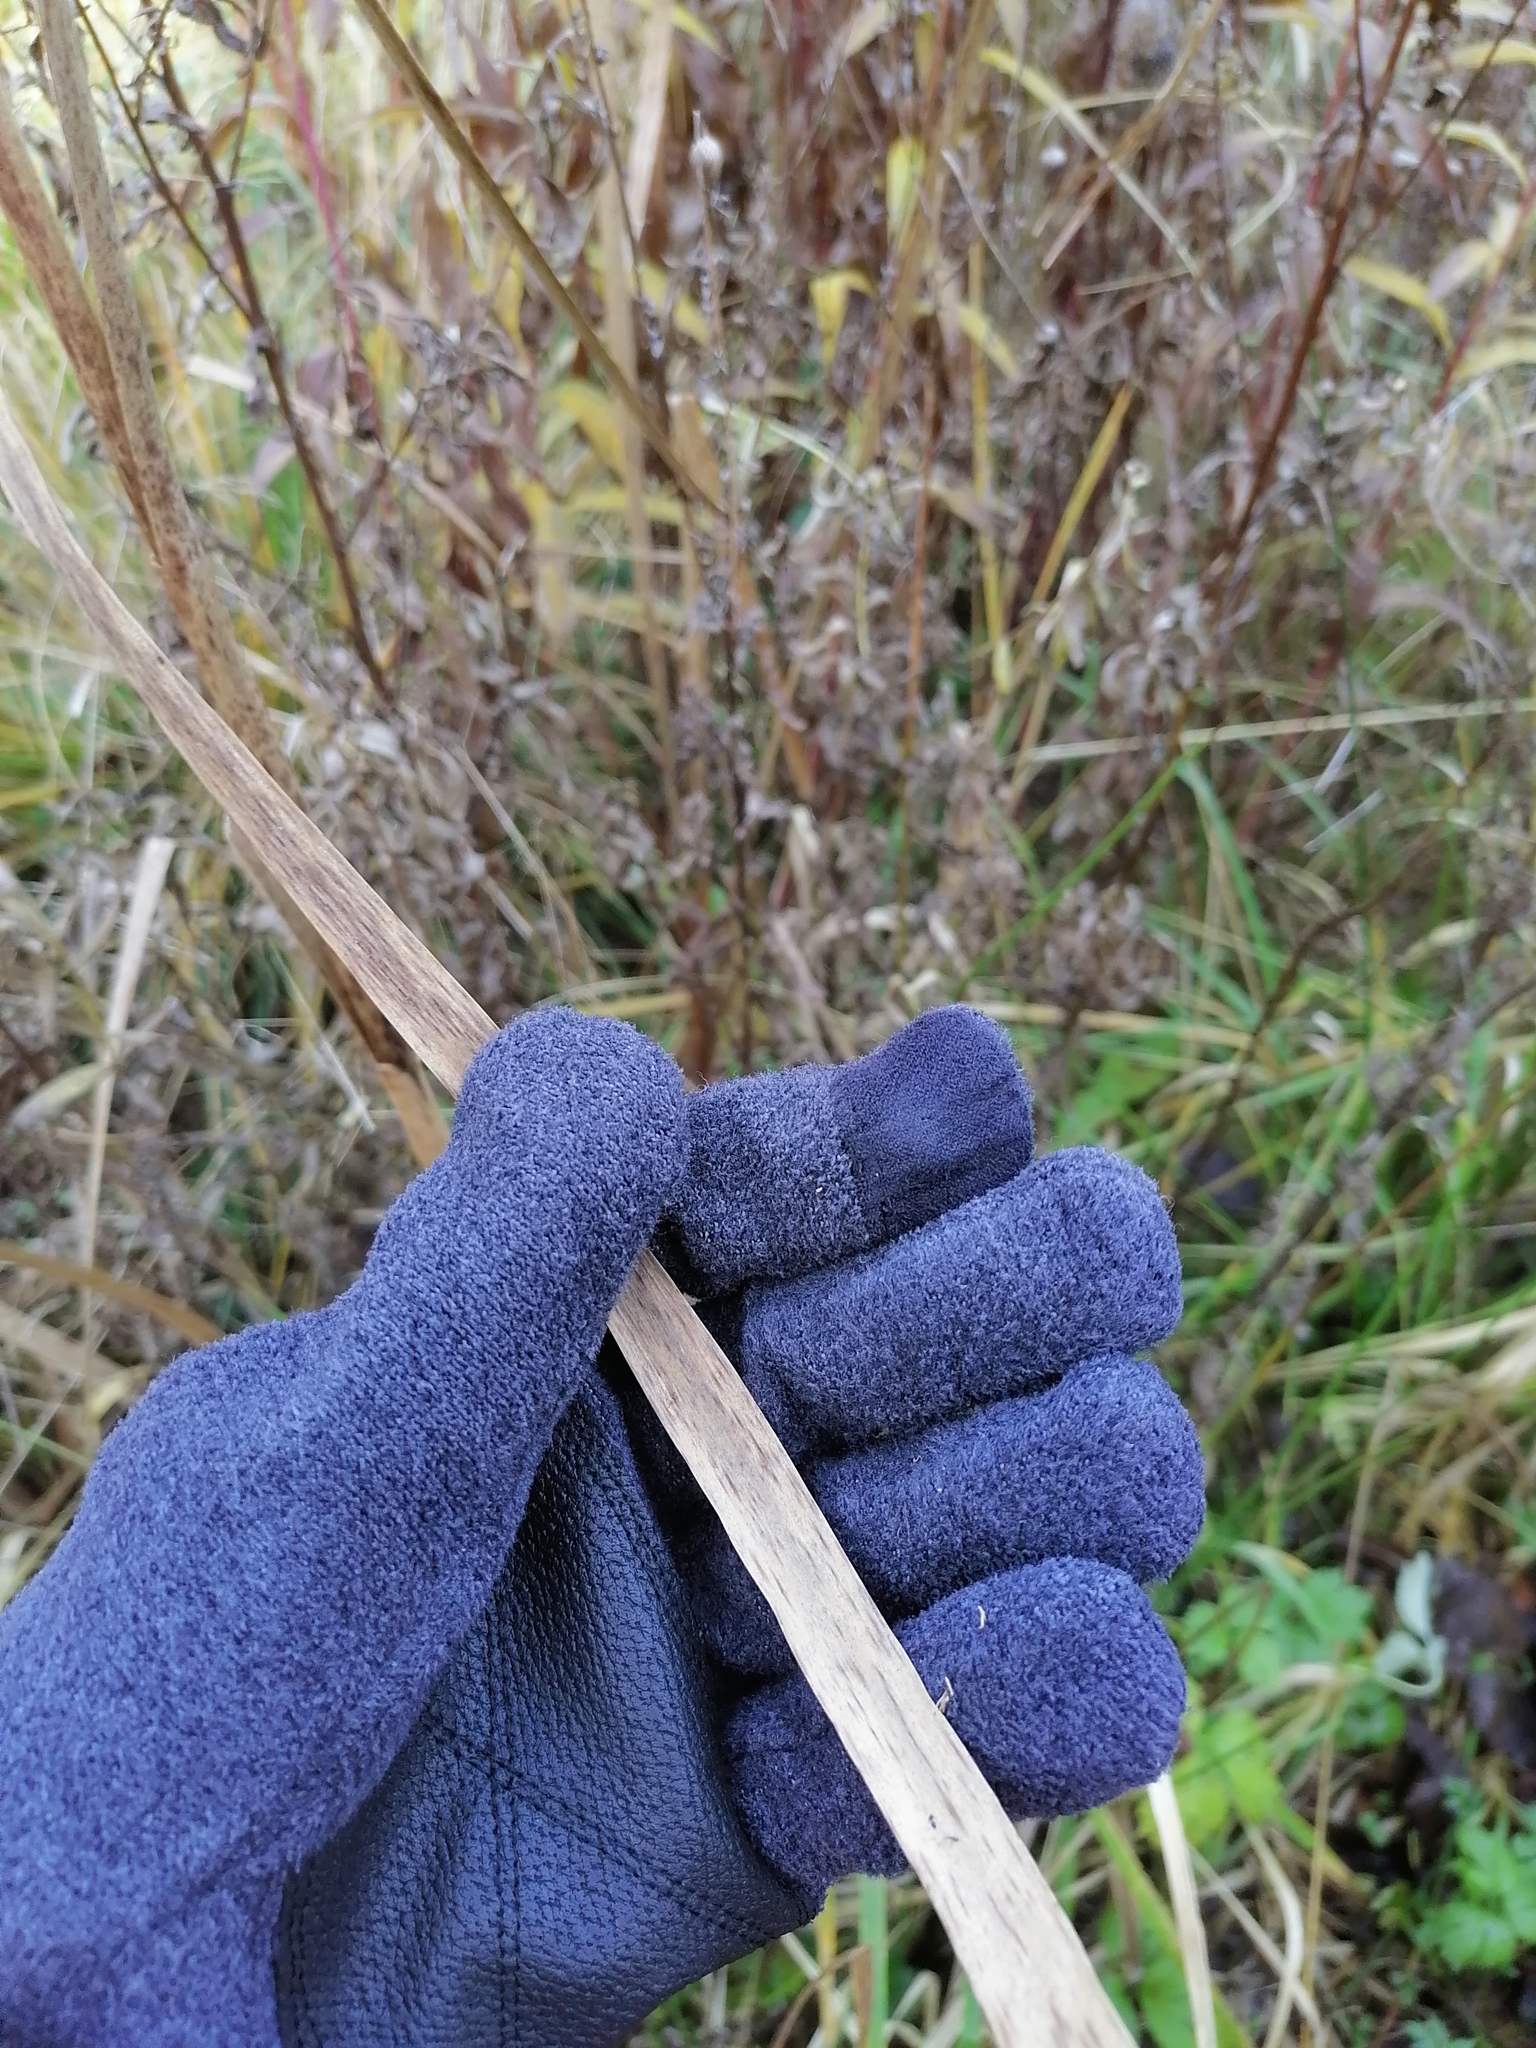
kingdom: Plantae
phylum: Tracheophyta
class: Liliopsida
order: Poales
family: Typhaceae
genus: Typha
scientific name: Typha latifolia
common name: Broadleaf cattail
